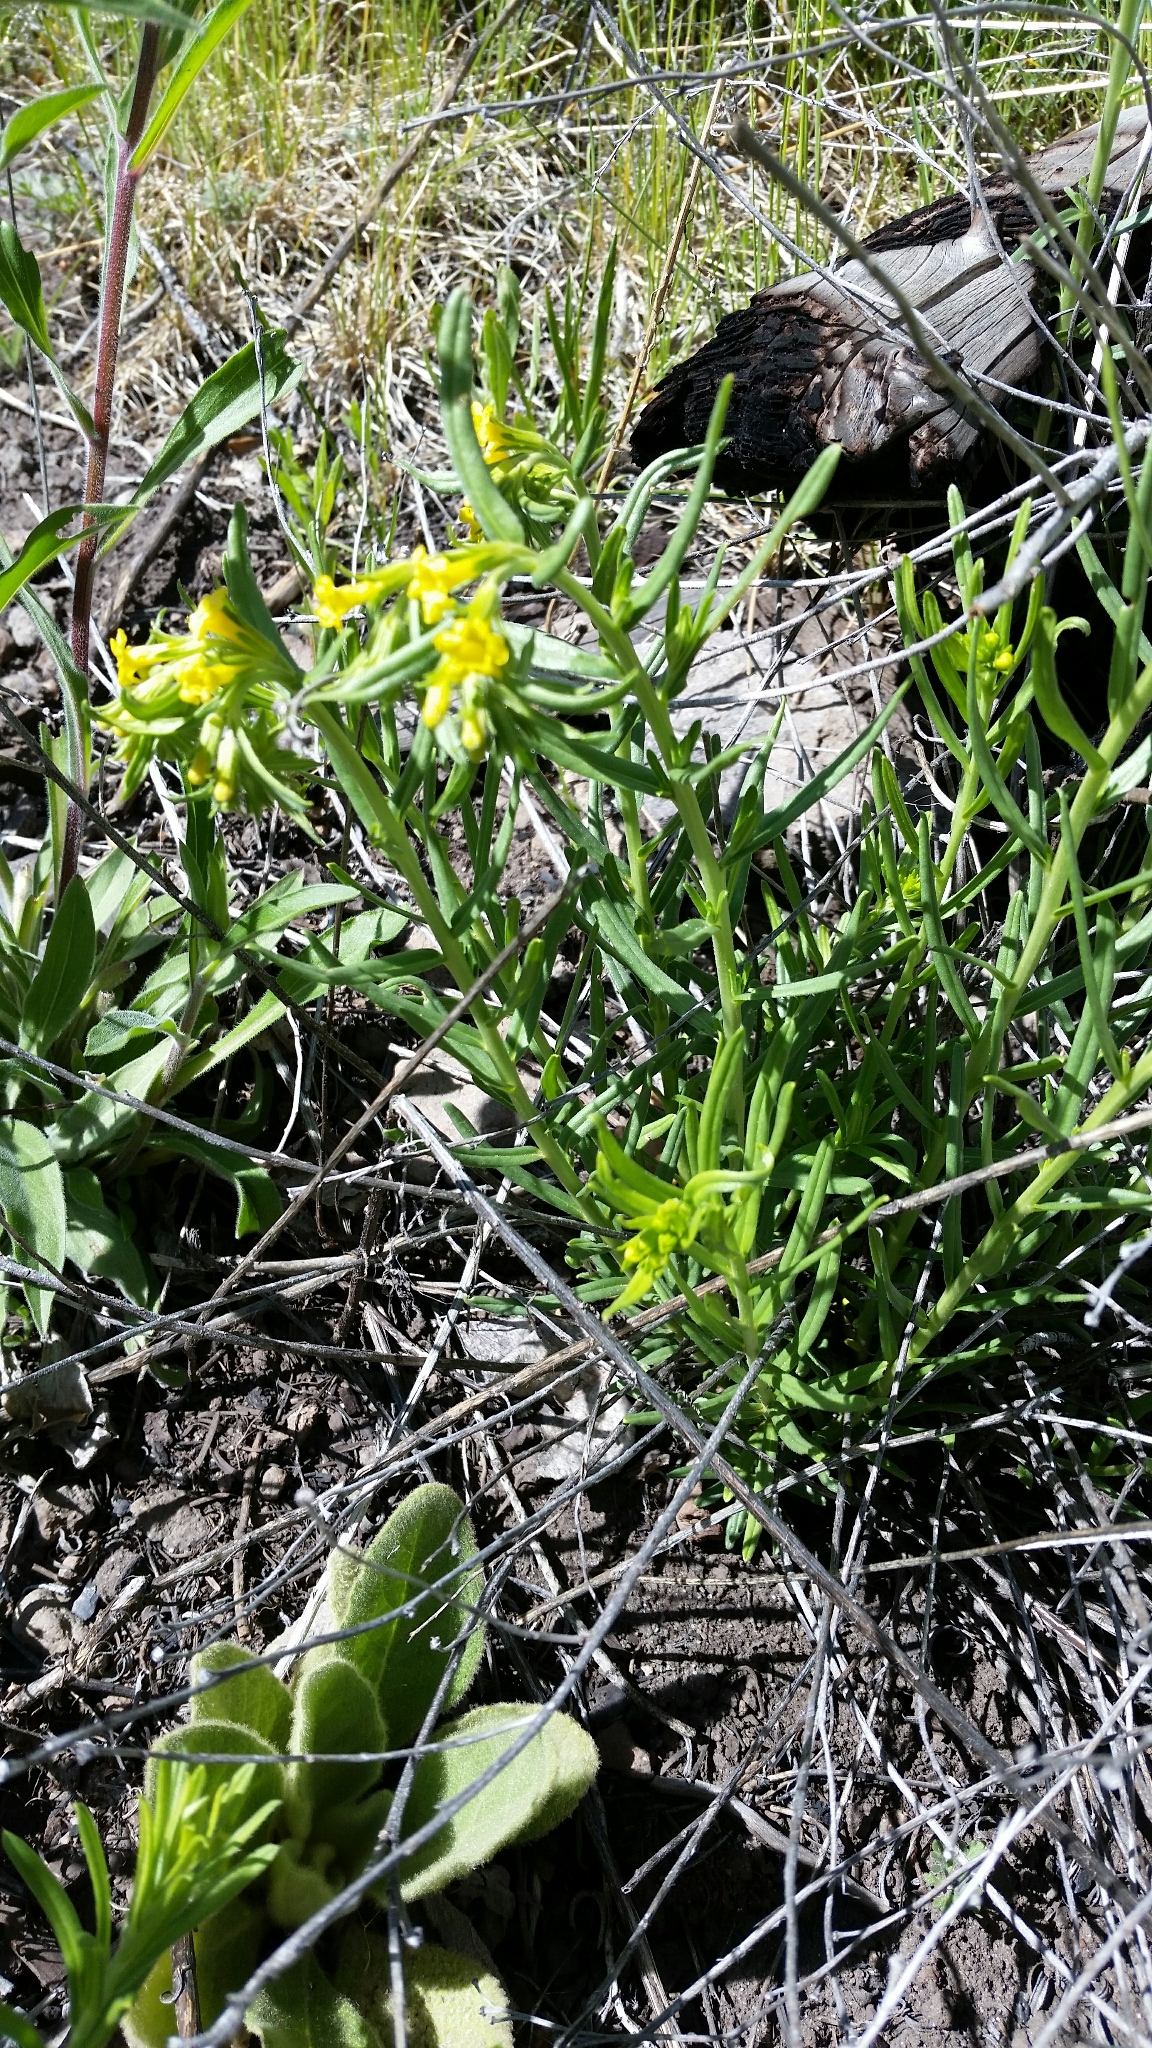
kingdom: Plantae
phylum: Tracheophyta
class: Magnoliopsida
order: Boraginales
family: Boraginaceae
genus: Lithospermum
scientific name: Lithospermum multiflorum
